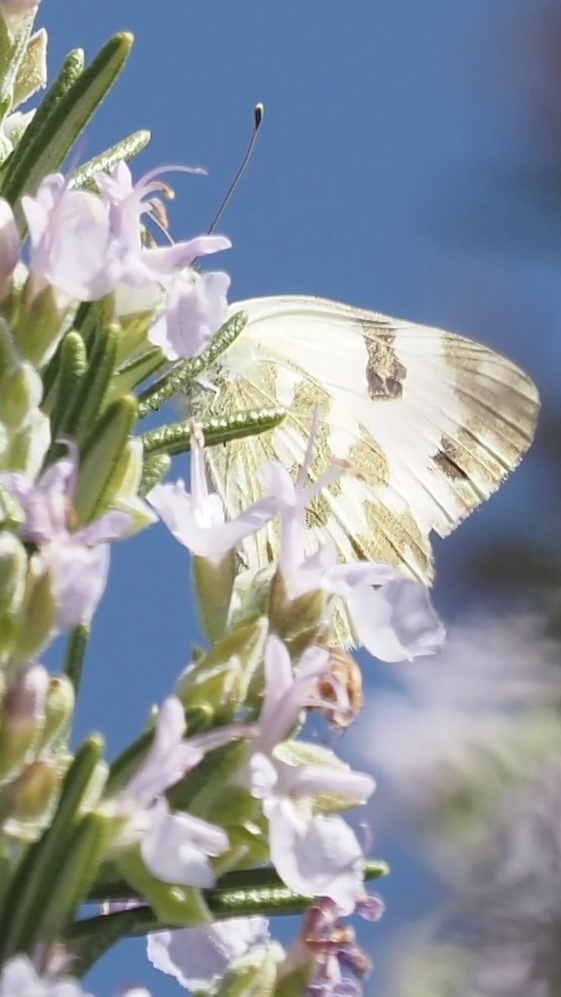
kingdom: Animalia
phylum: Arthropoda
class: Insecta
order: Lepidoptera
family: Pieridae
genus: Pontia
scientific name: Pontia daplidice
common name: Bath white
